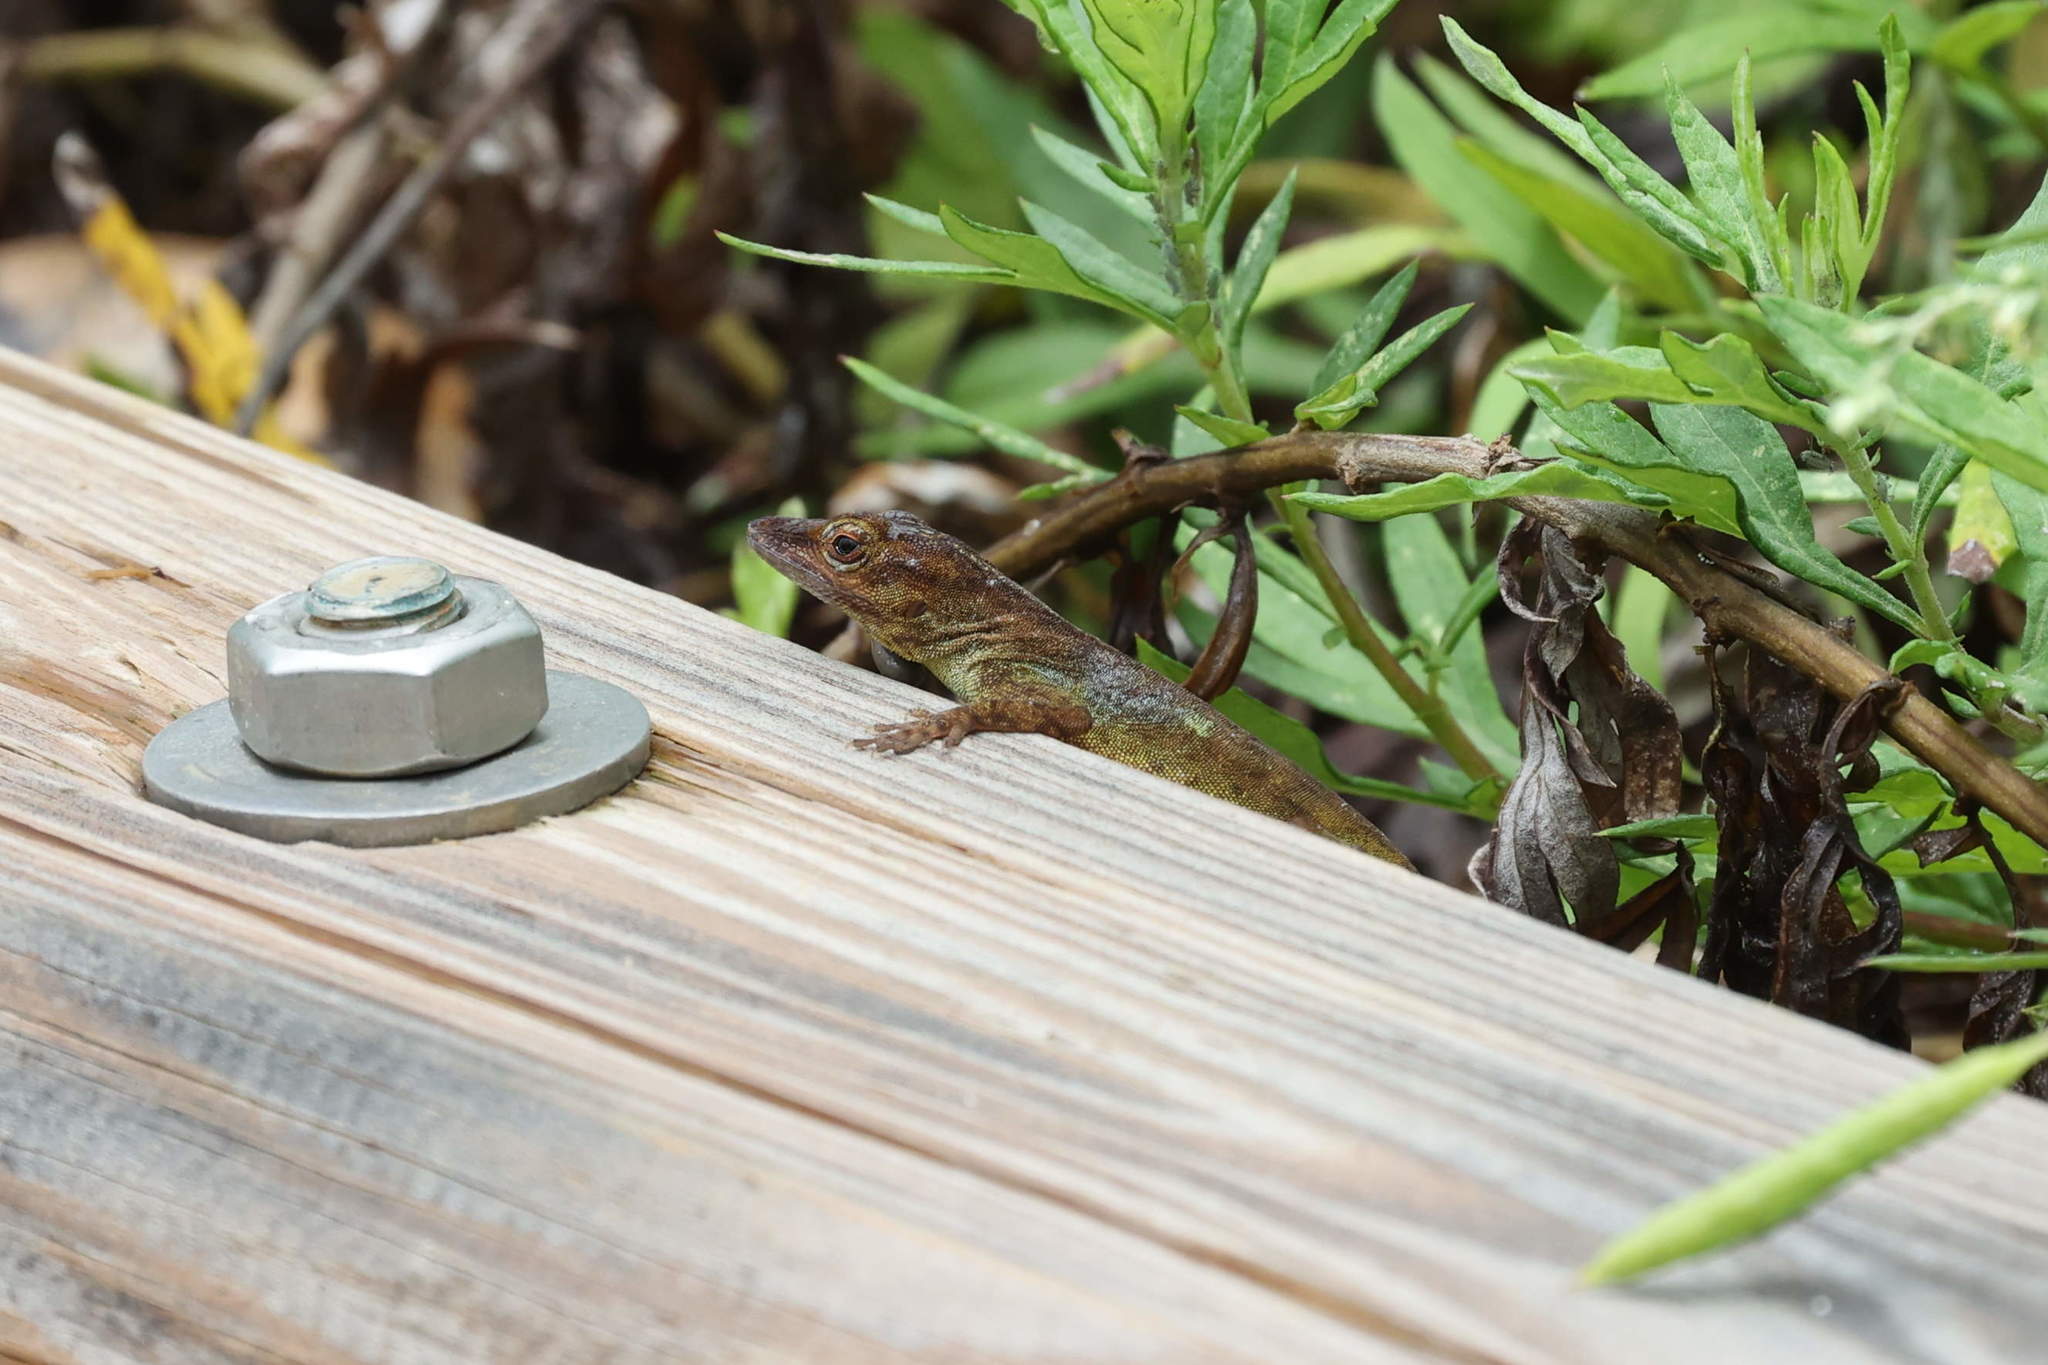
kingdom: Animalia
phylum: Chordata
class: Squamata
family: Dactyloidae
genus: Anolis
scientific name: Anolis marmoratus
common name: Guadeloupe anole
